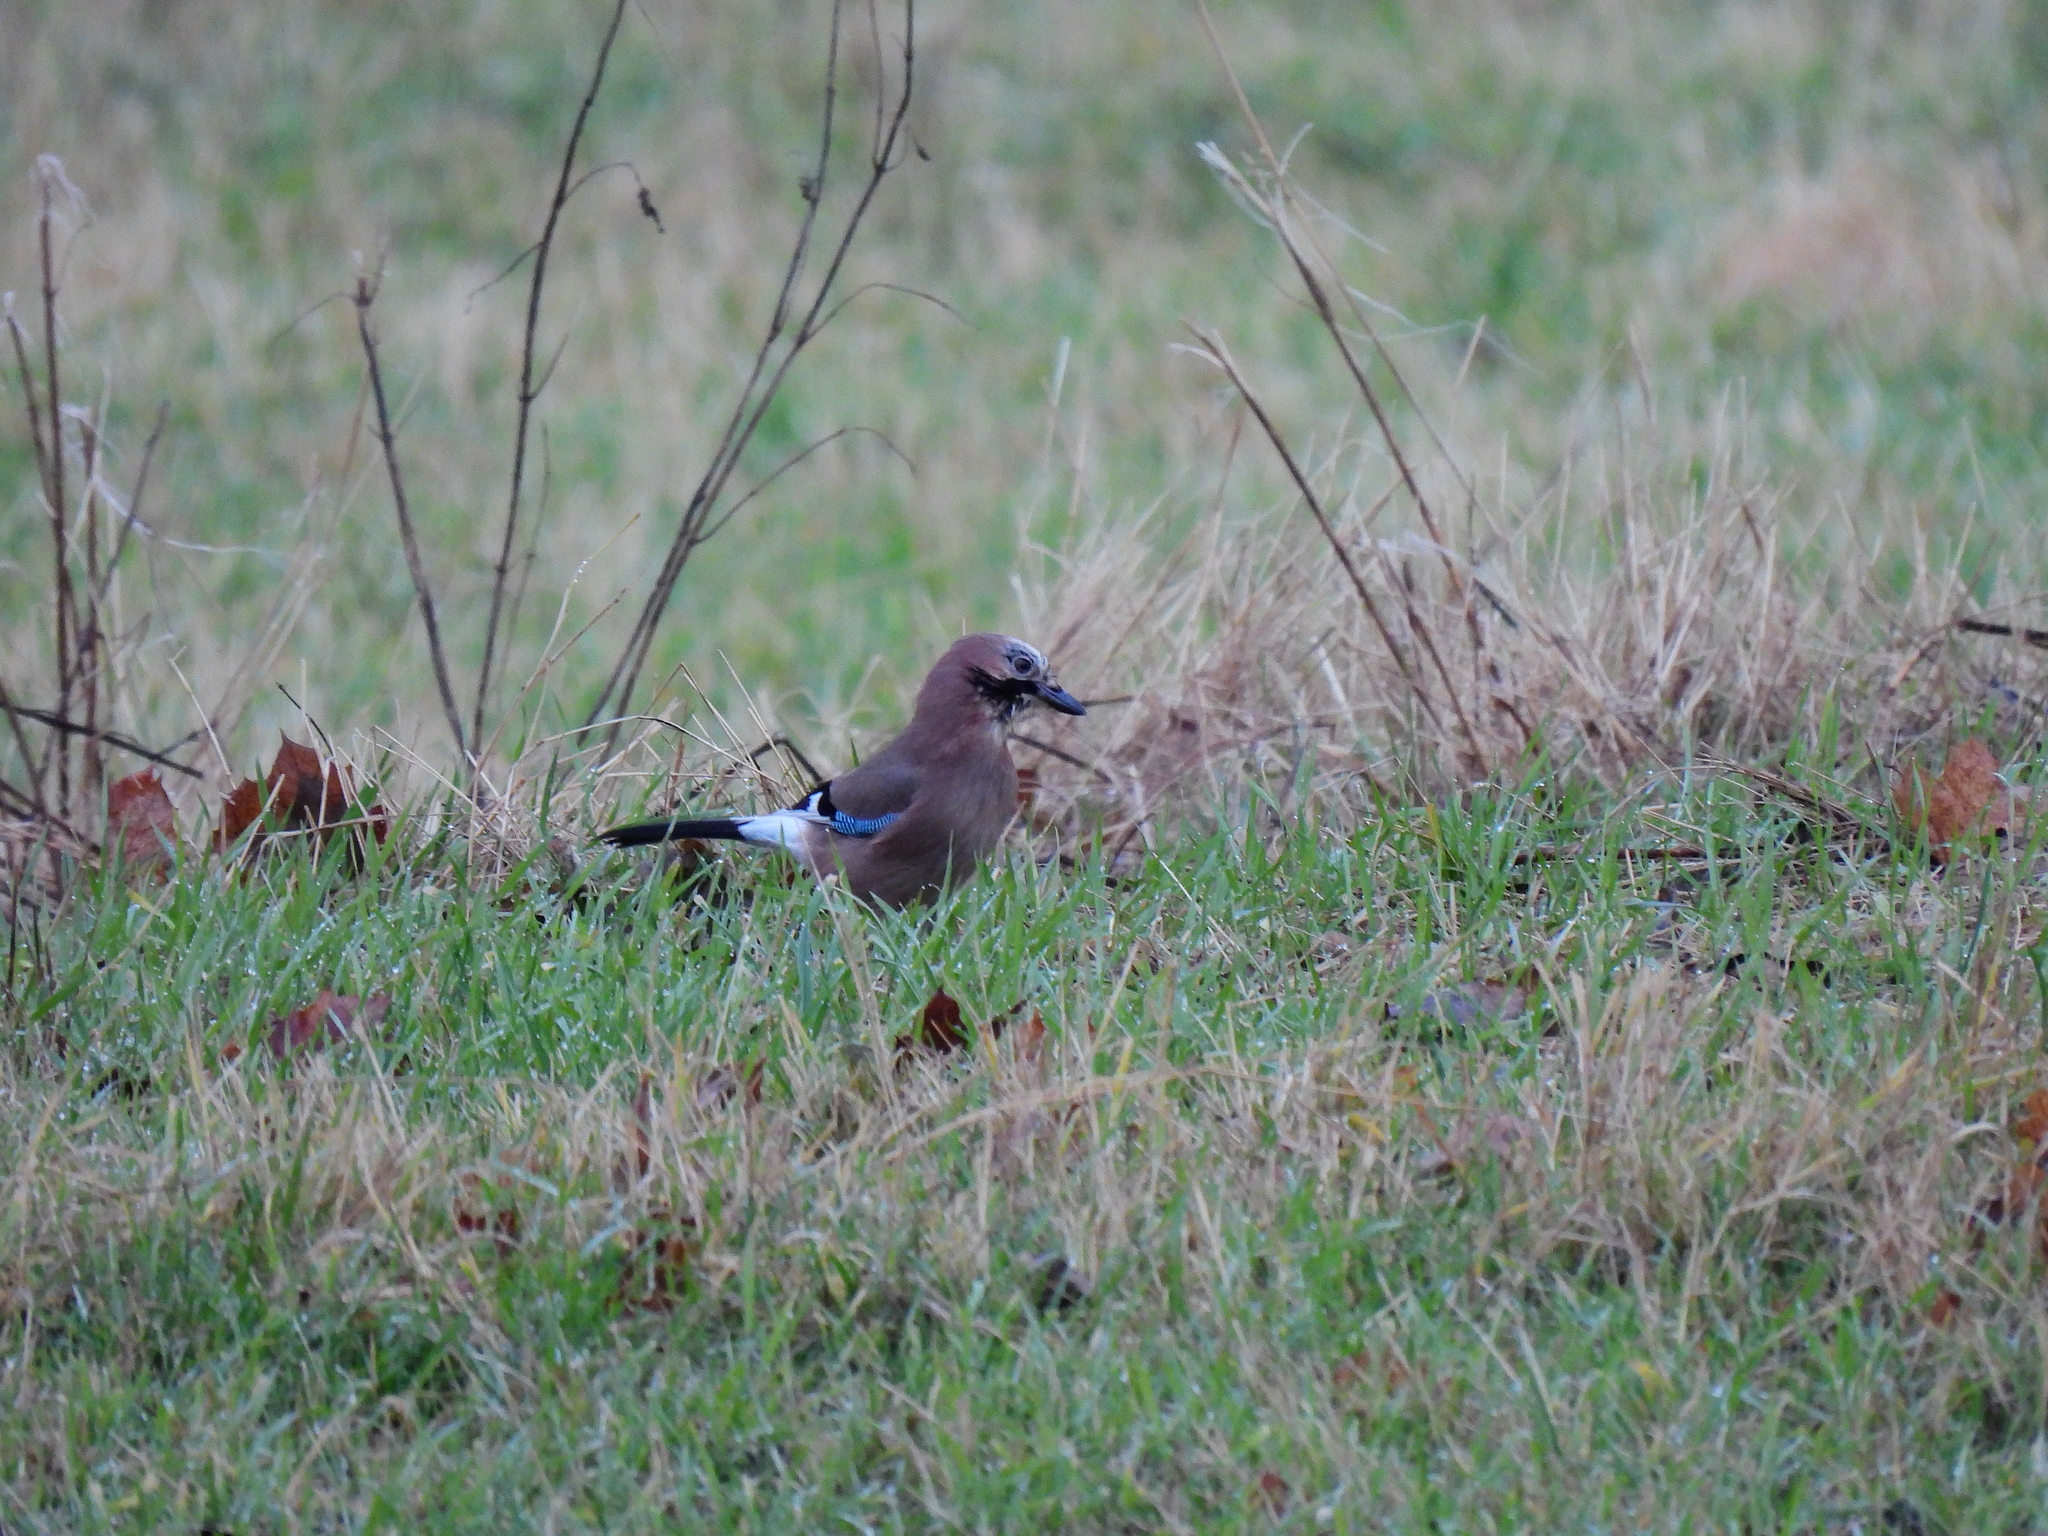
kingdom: Animalia
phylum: Chordata
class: Aves
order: Passeriformes
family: Corvidae
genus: Garrulus
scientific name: Garrulus glandarius
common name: Eurasian jay
